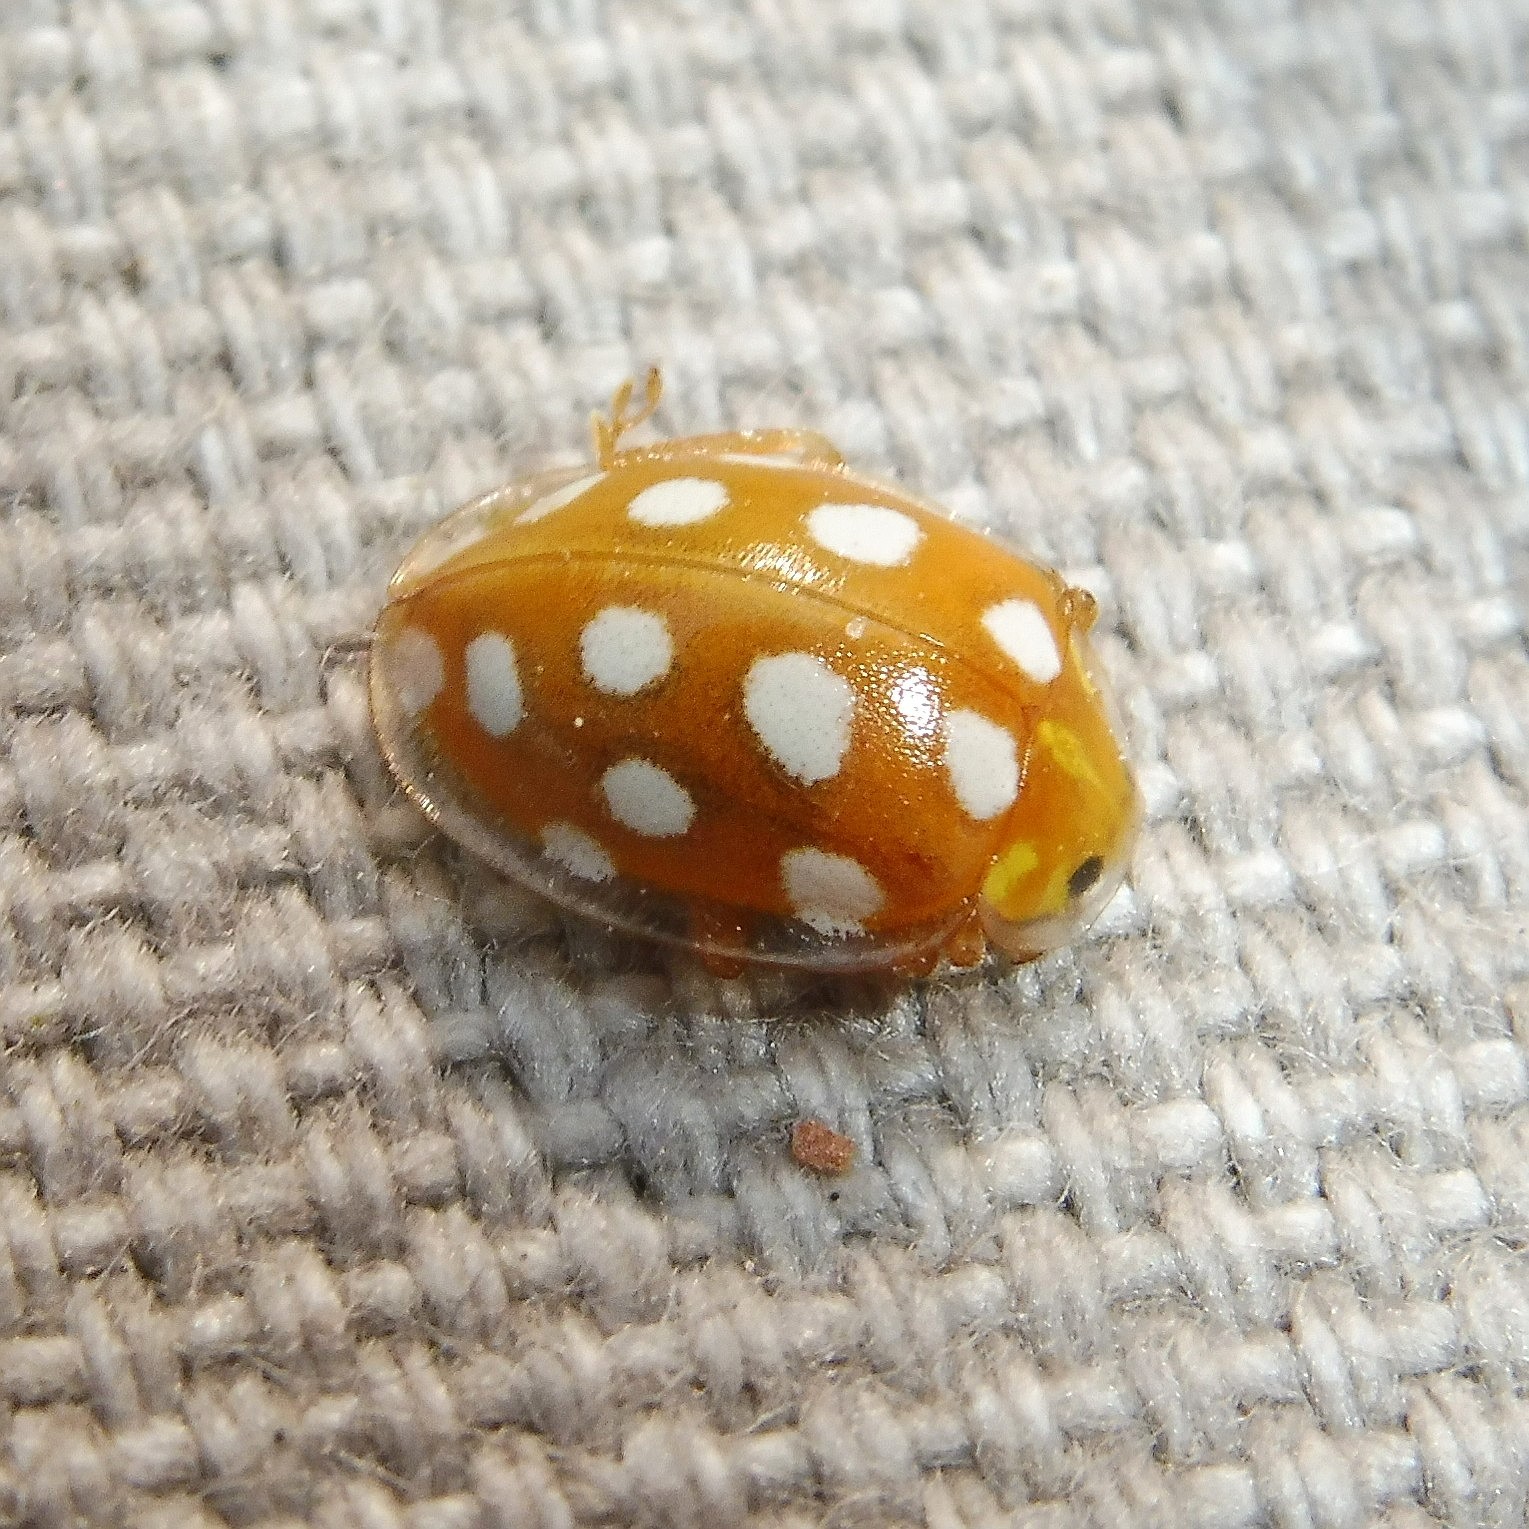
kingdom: Animalia
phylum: Arthropoda
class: Insecta
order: Coleoptera
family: Coccinellidae
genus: Halyzia
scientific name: Halyzia sedecimguttata
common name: Orange ladybird
